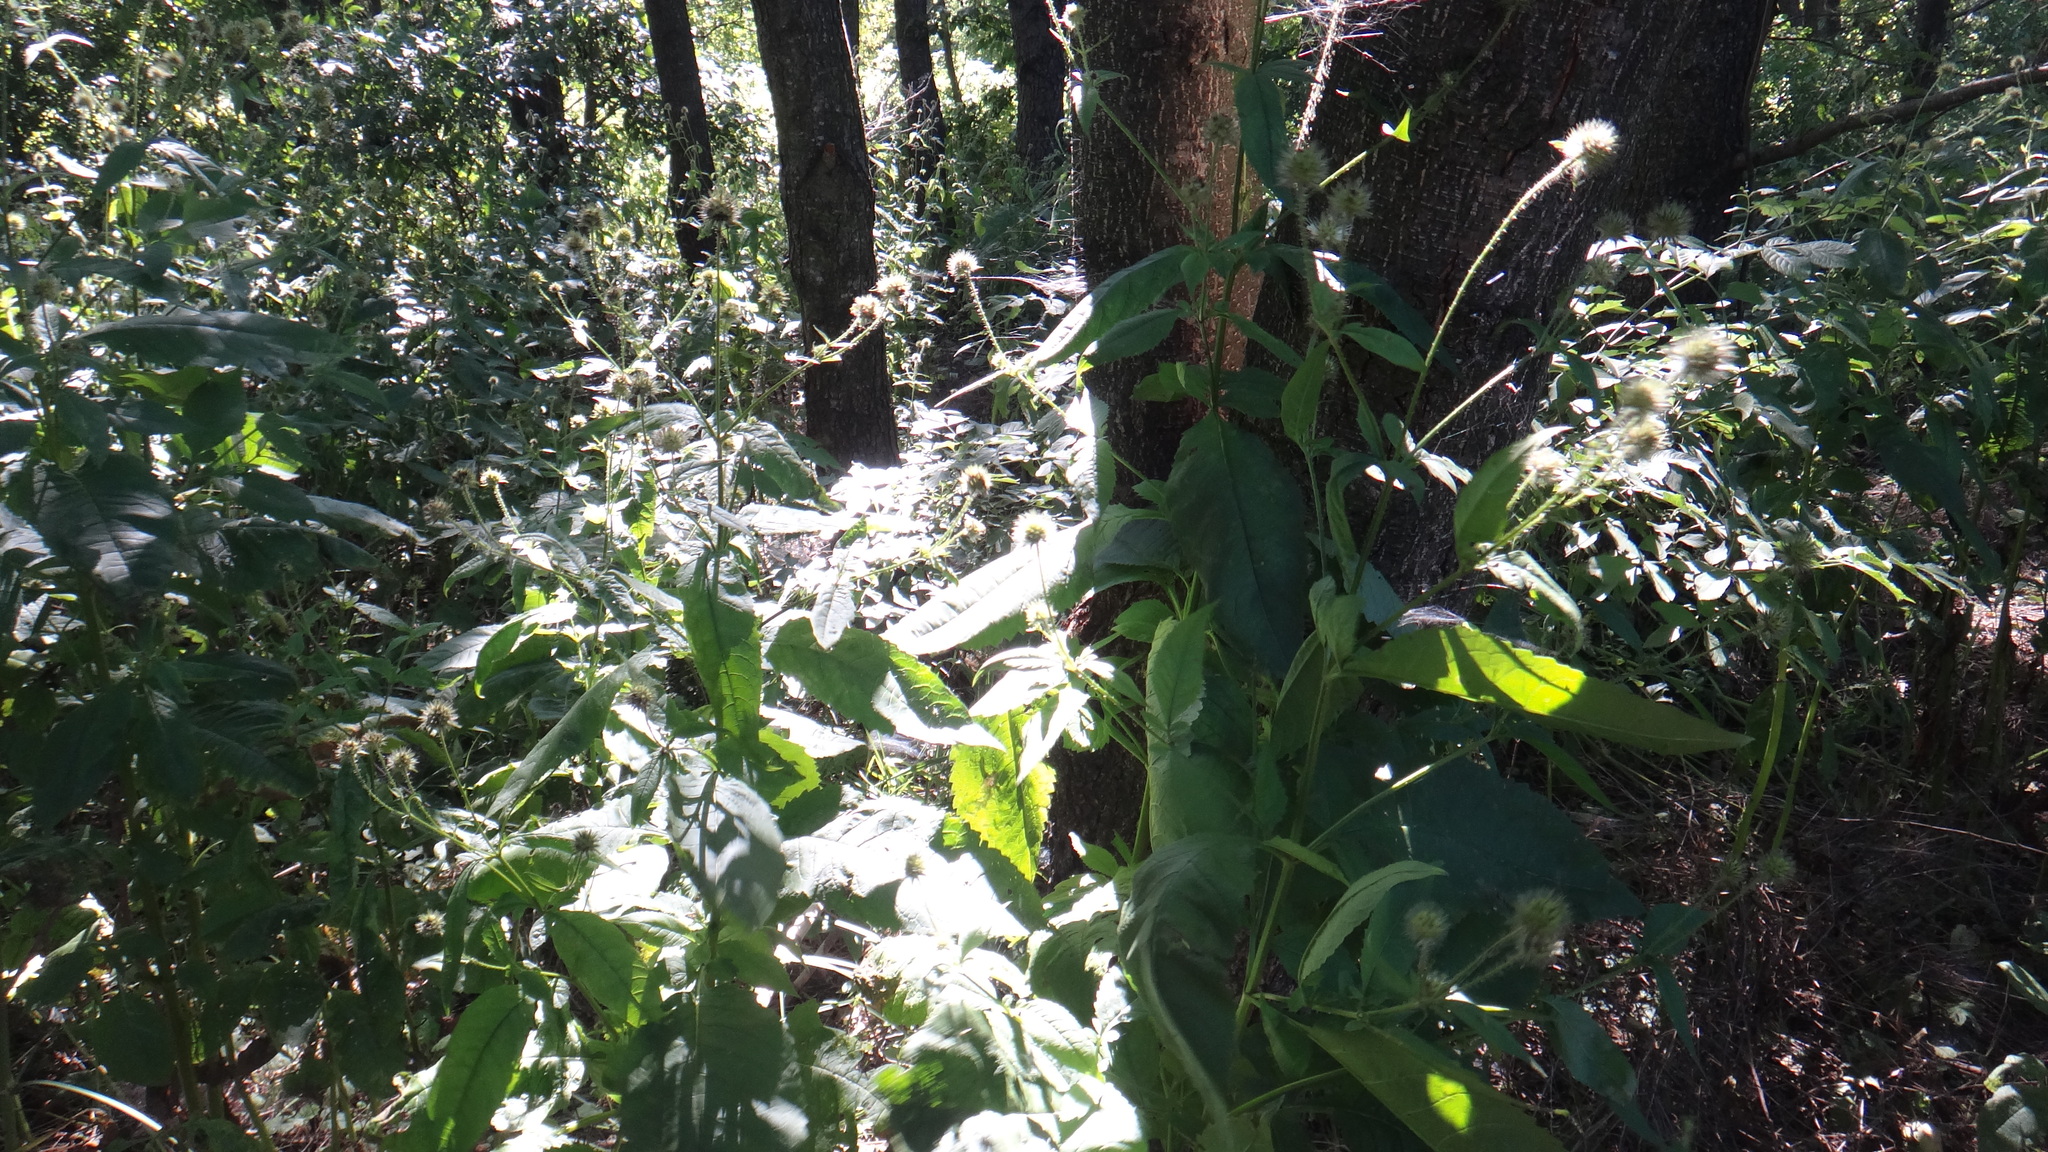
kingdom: Plantae
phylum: Tracheophyta
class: Magnoliopsida
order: Dipsacales
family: Caprifoliaceae
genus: Dipsacus
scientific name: Dipsacus pilosus
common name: Small teasel
